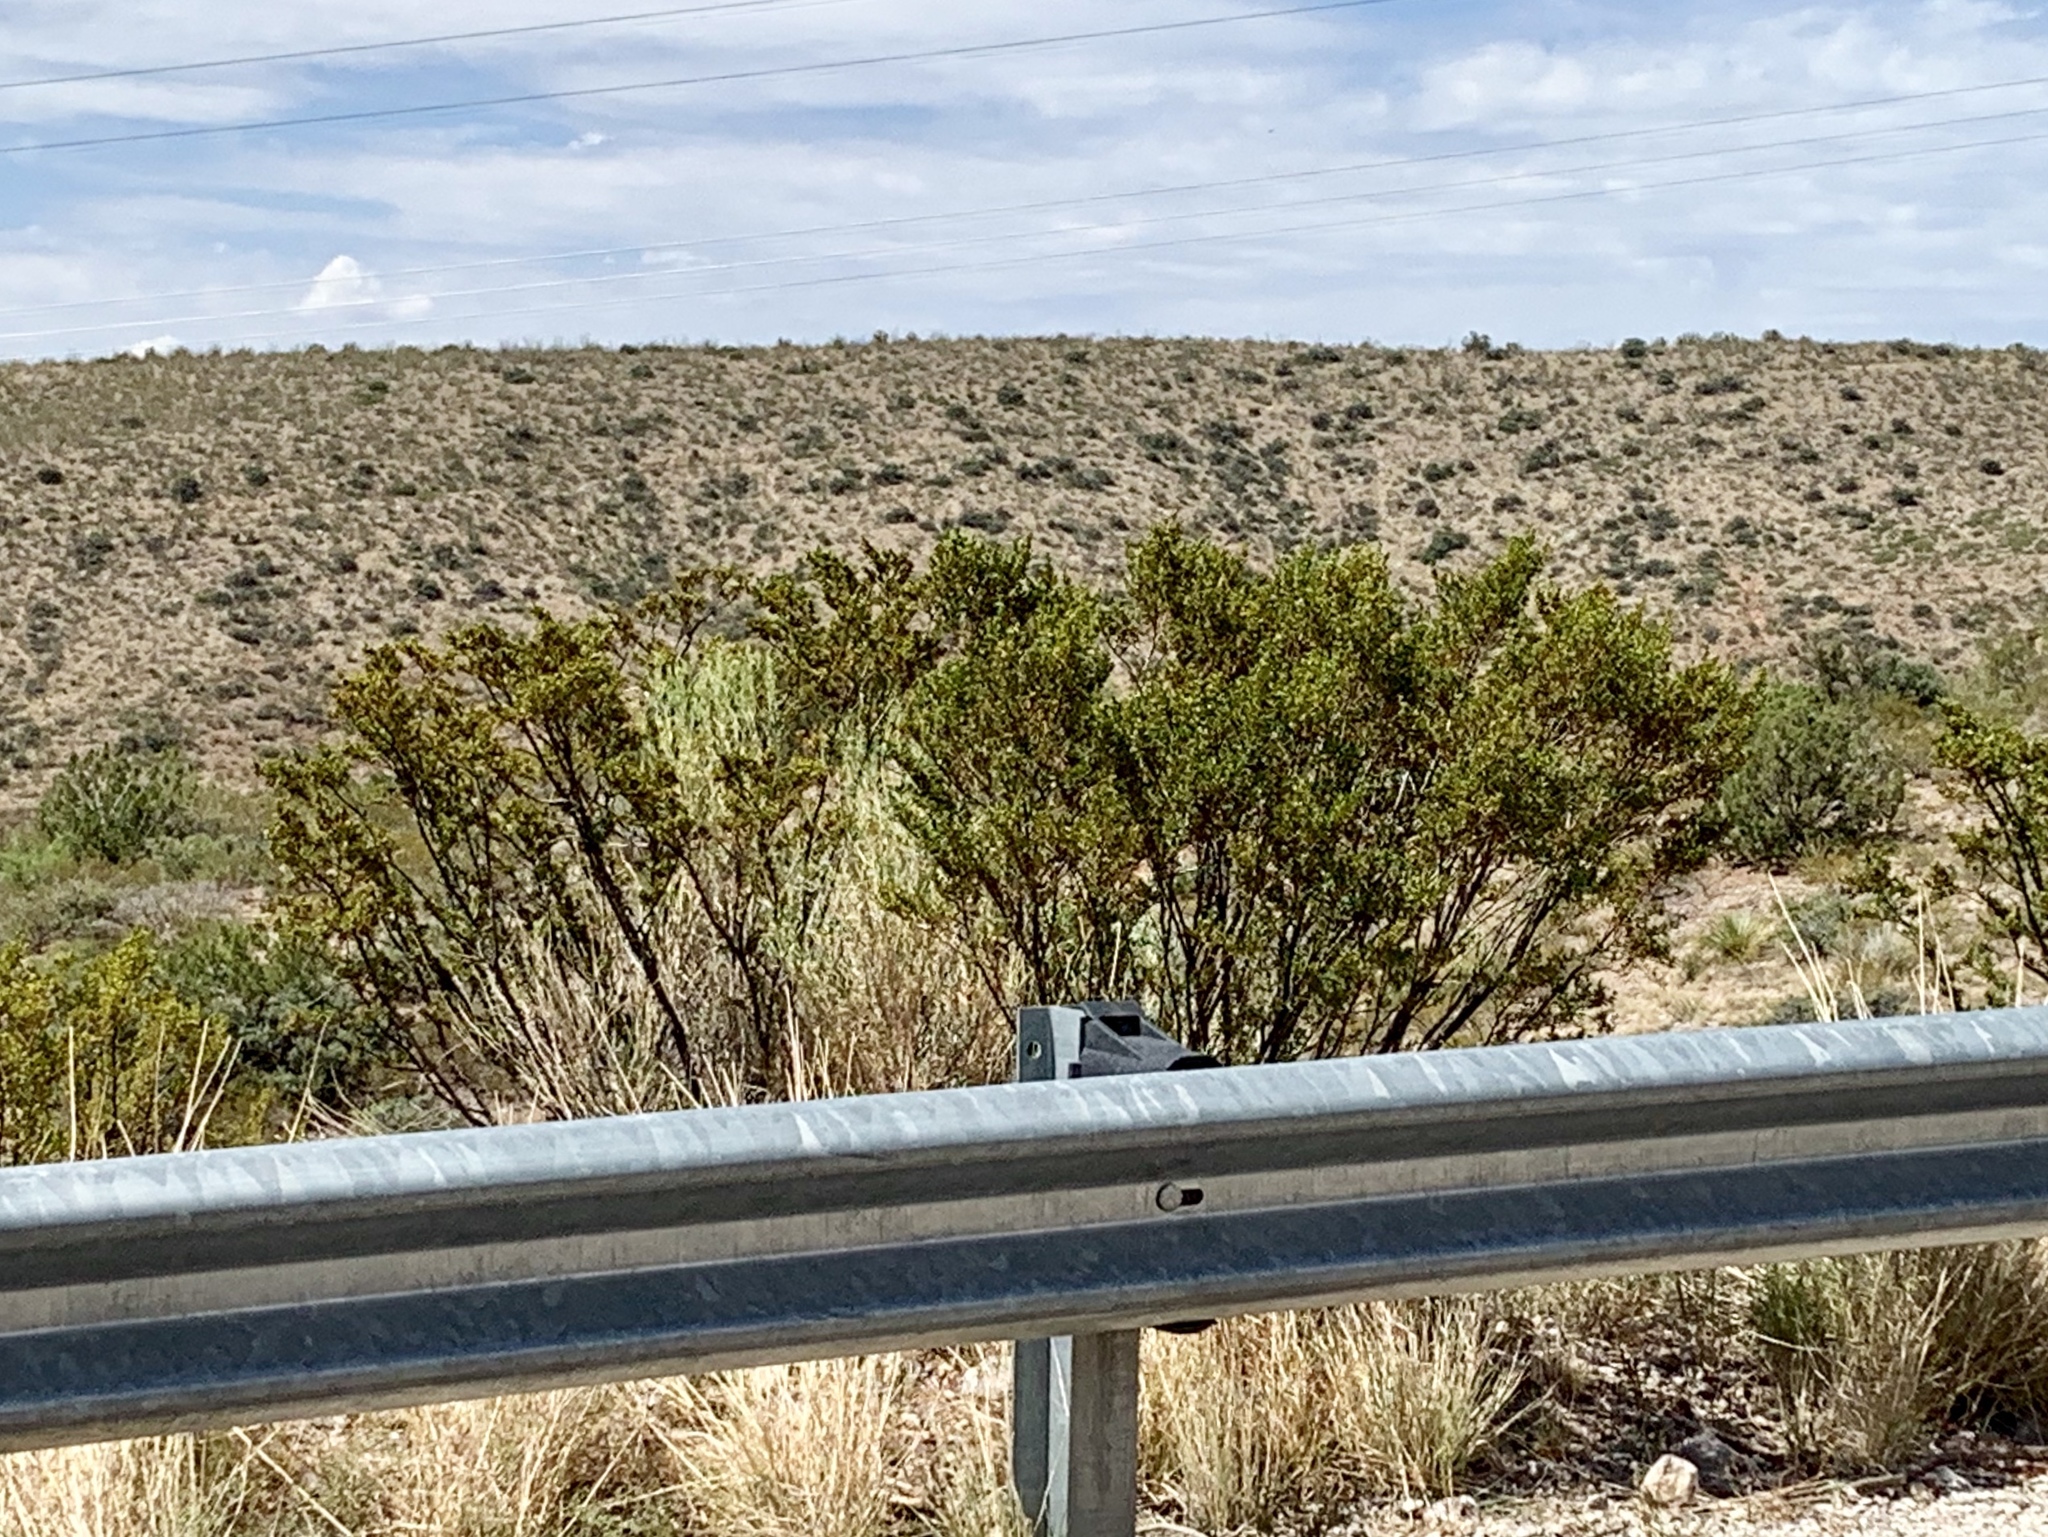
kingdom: Plantae
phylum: Tracheophyta
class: Magnoliopsida
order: Zygophyllales
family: Zygophyllaceae
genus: Larrea
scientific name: Larrea tridentata
